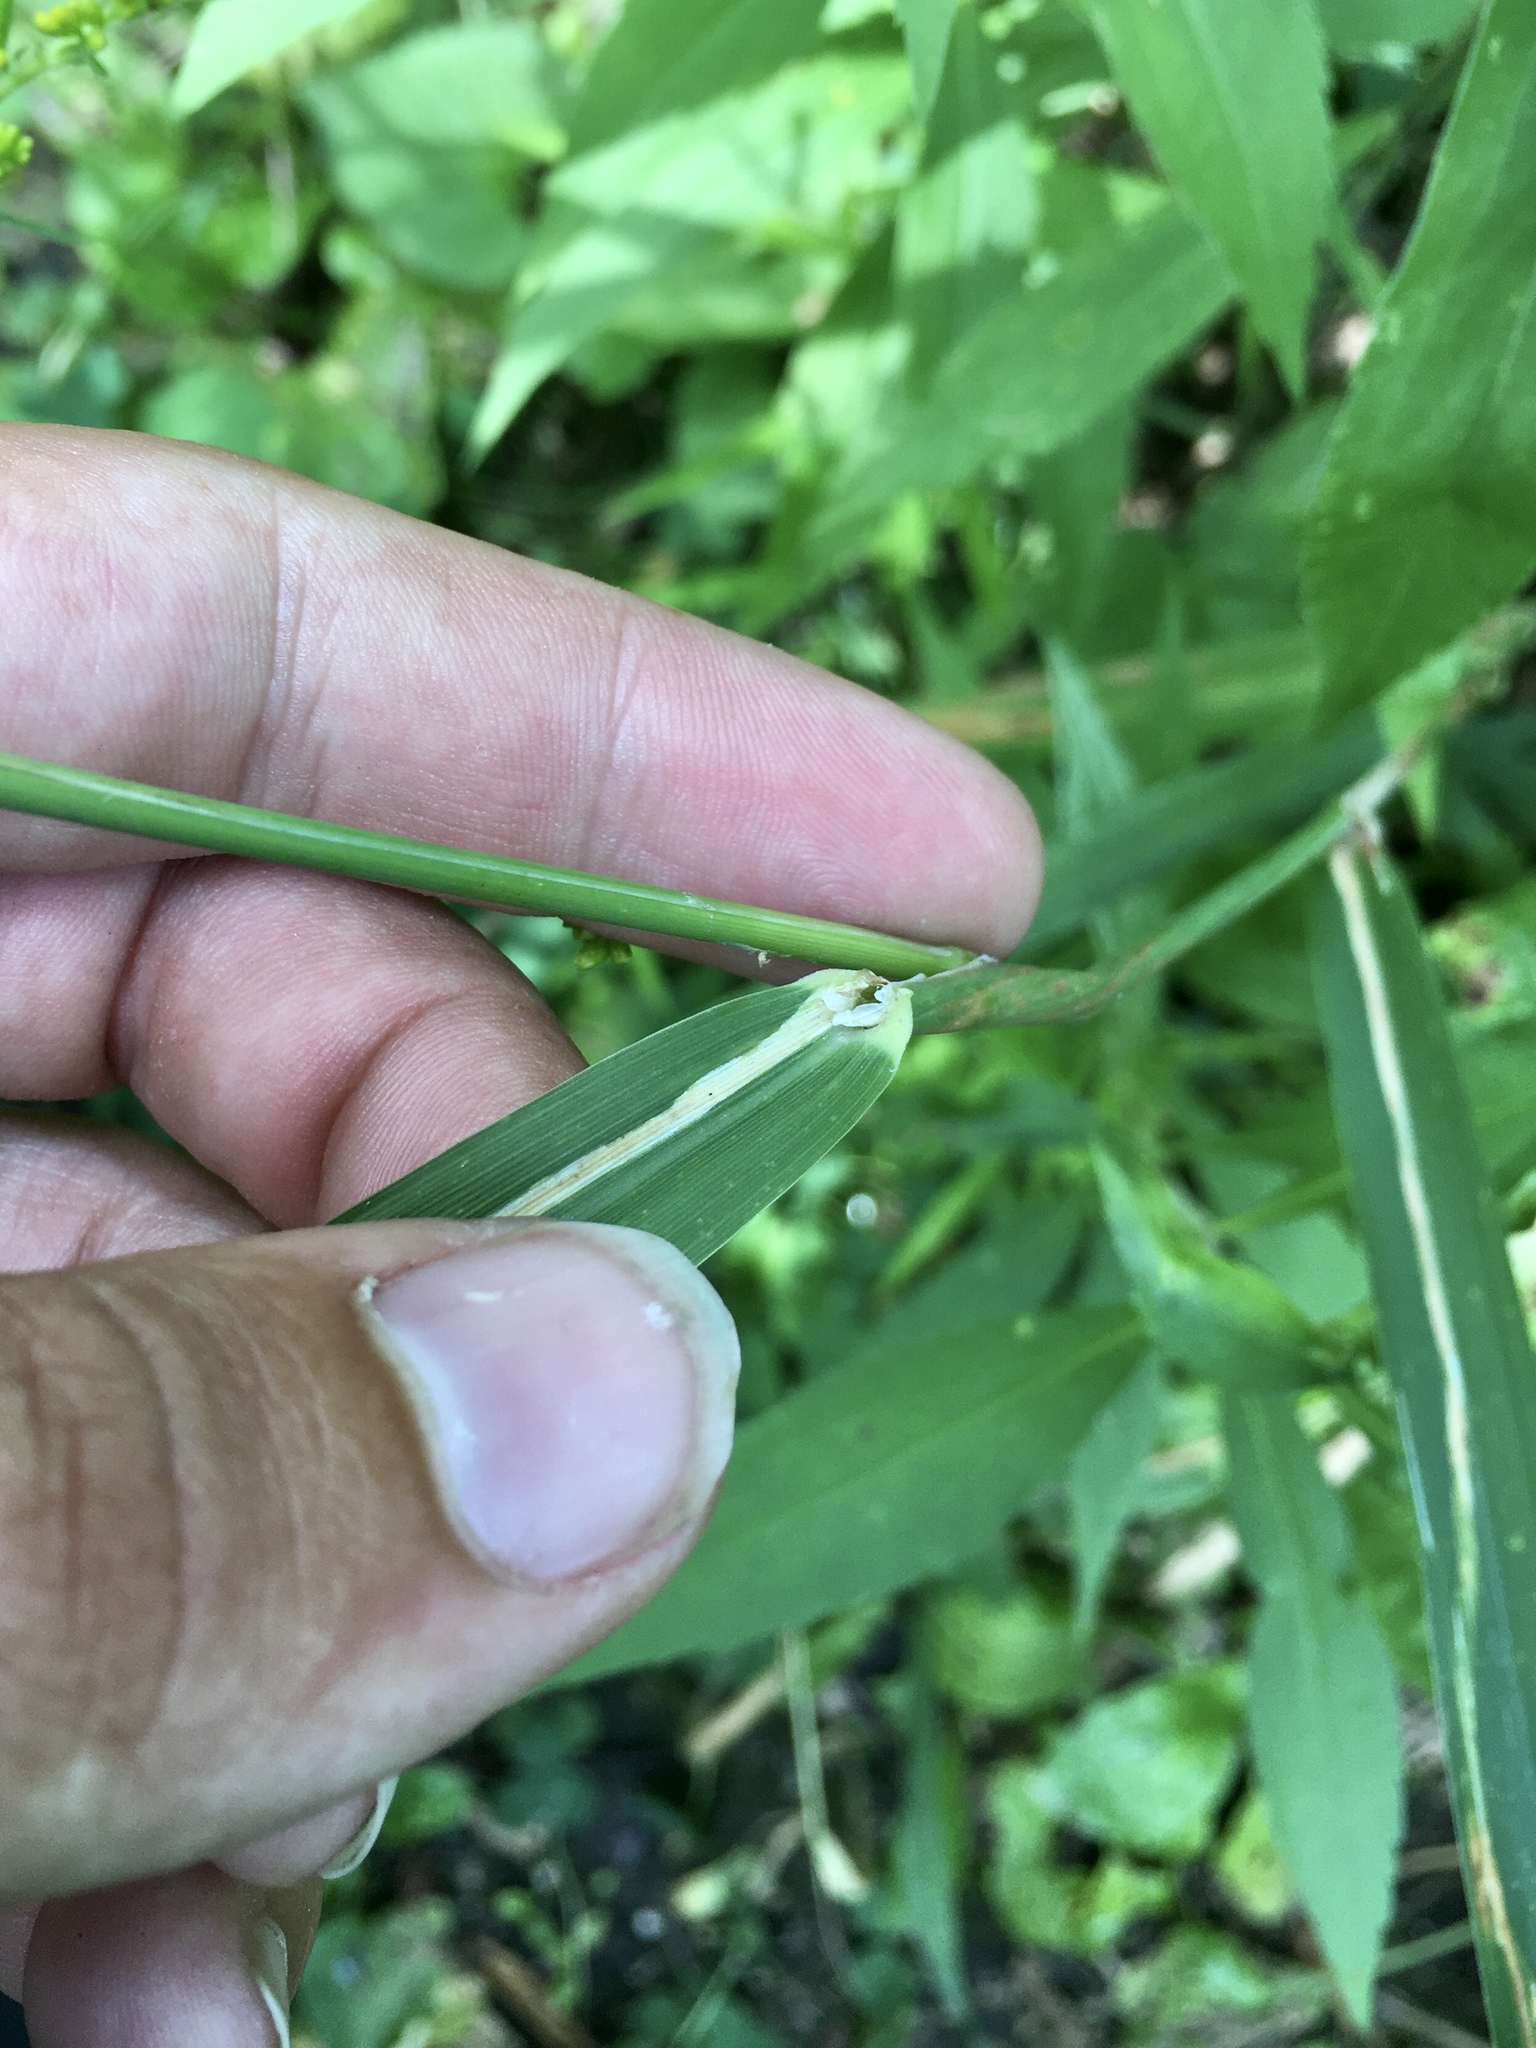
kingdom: Animalia
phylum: Arthropoda
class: Insecta
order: Diptera
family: Agromyzidae
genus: Cerodontha
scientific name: Cerodontha dorsalis
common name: Grass sheathminer fly
